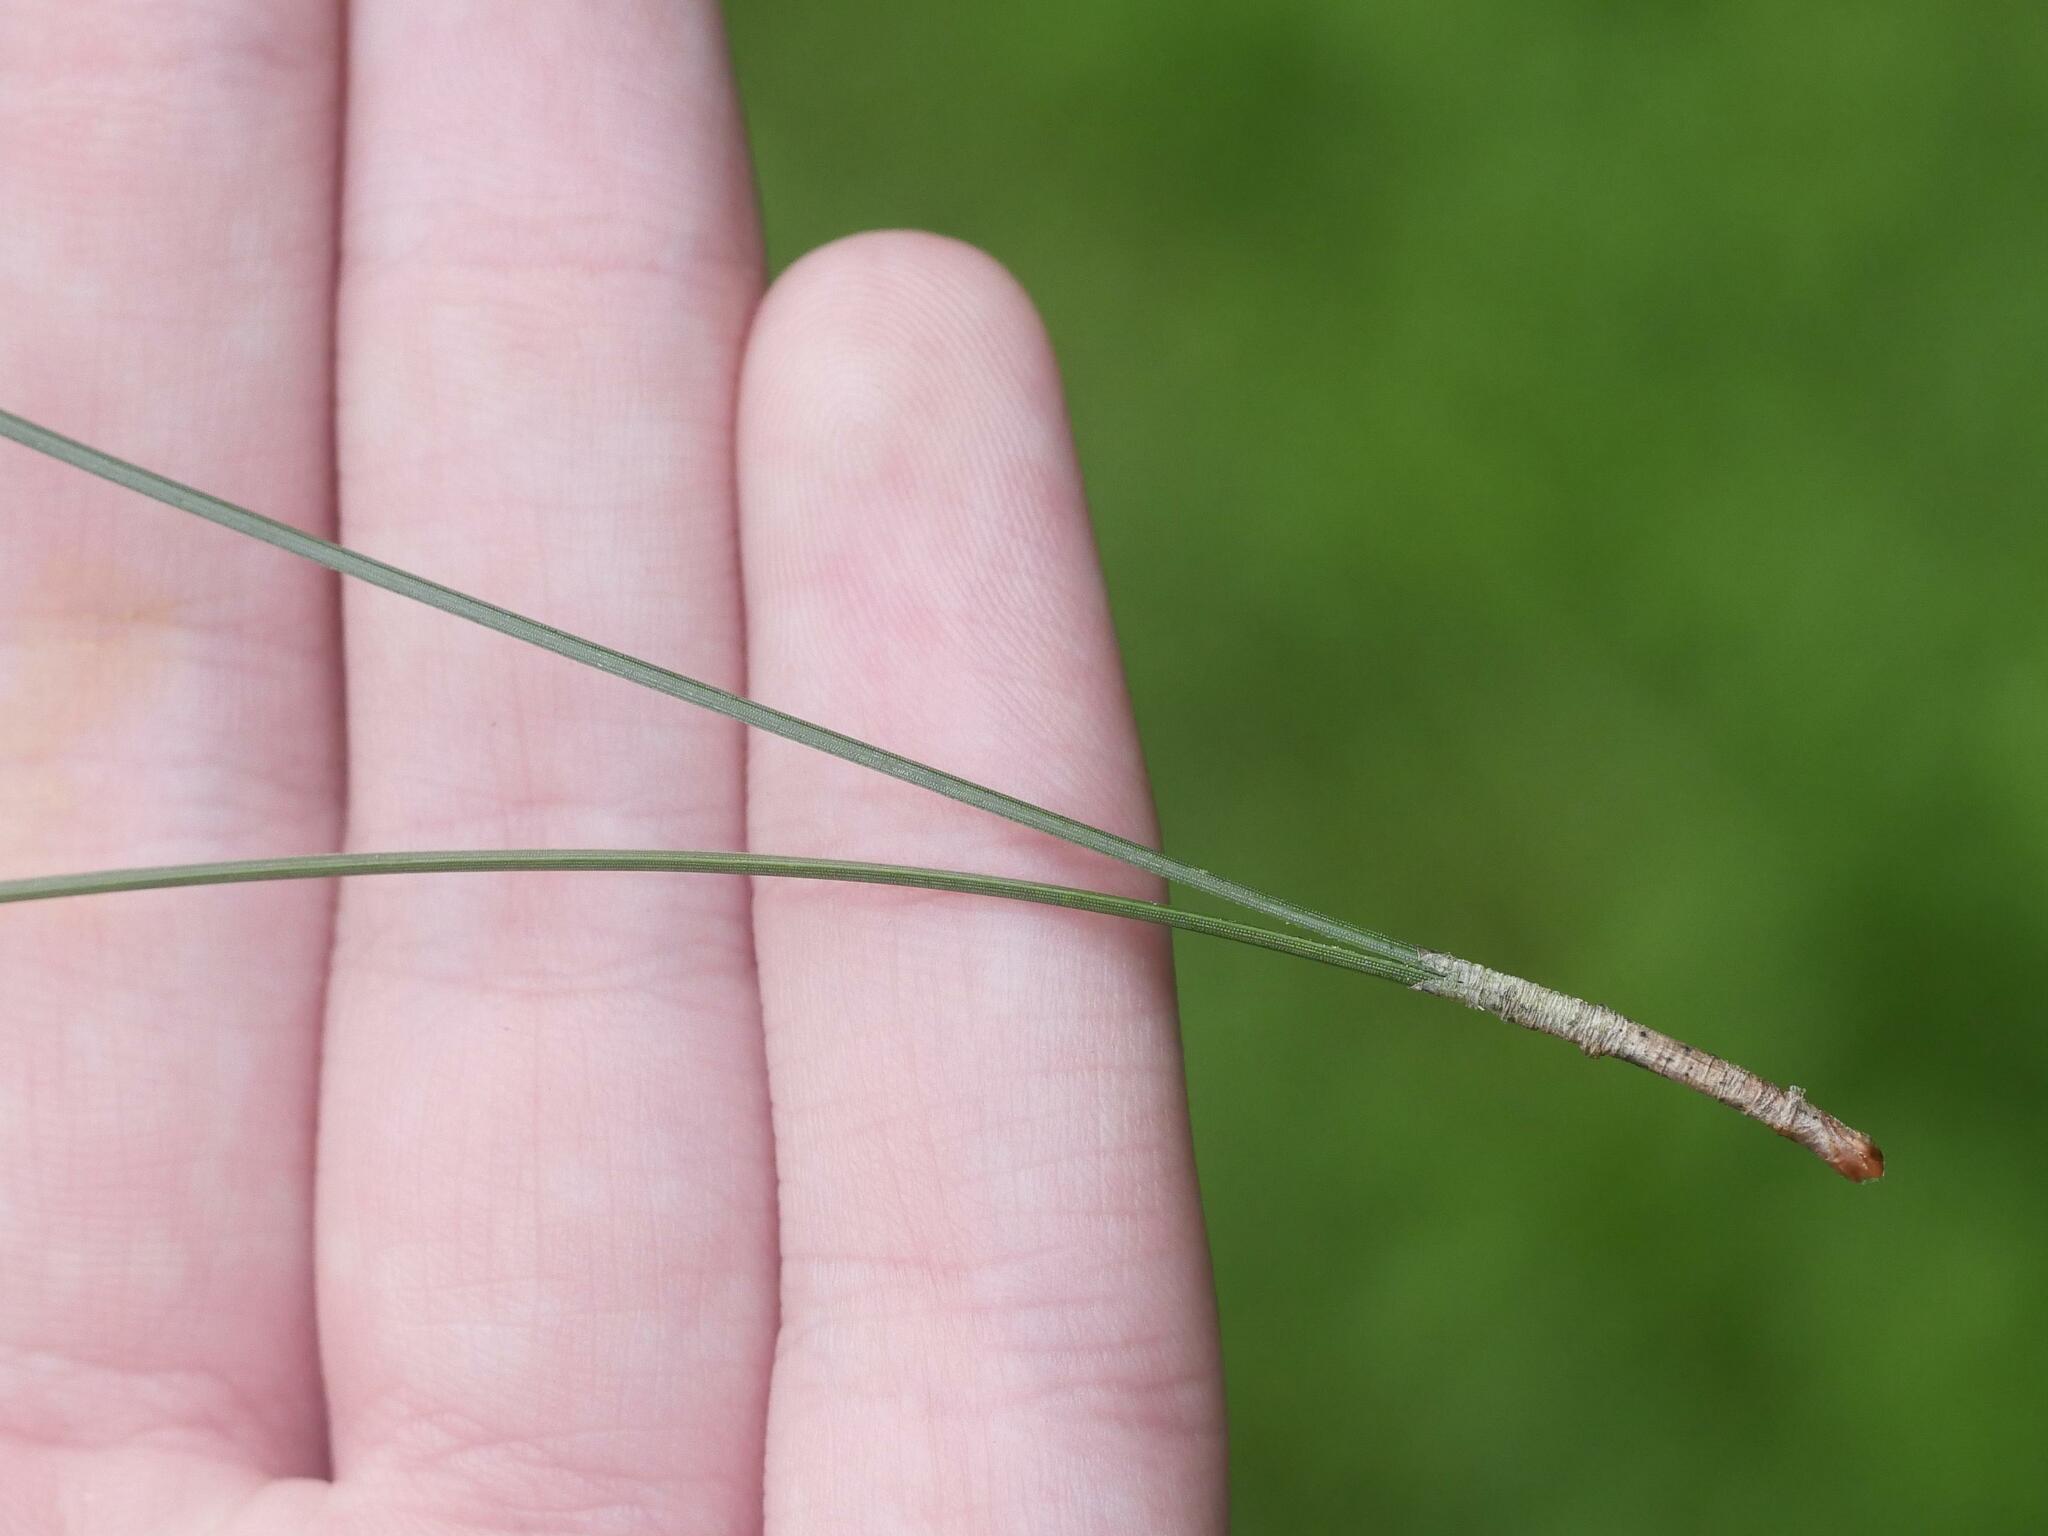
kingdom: Plantae
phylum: Tracheophyta
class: Pinopsida
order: Pinales
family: Pinaceae
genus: Pinus
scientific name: Pinus resinosa
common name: Norway pine
